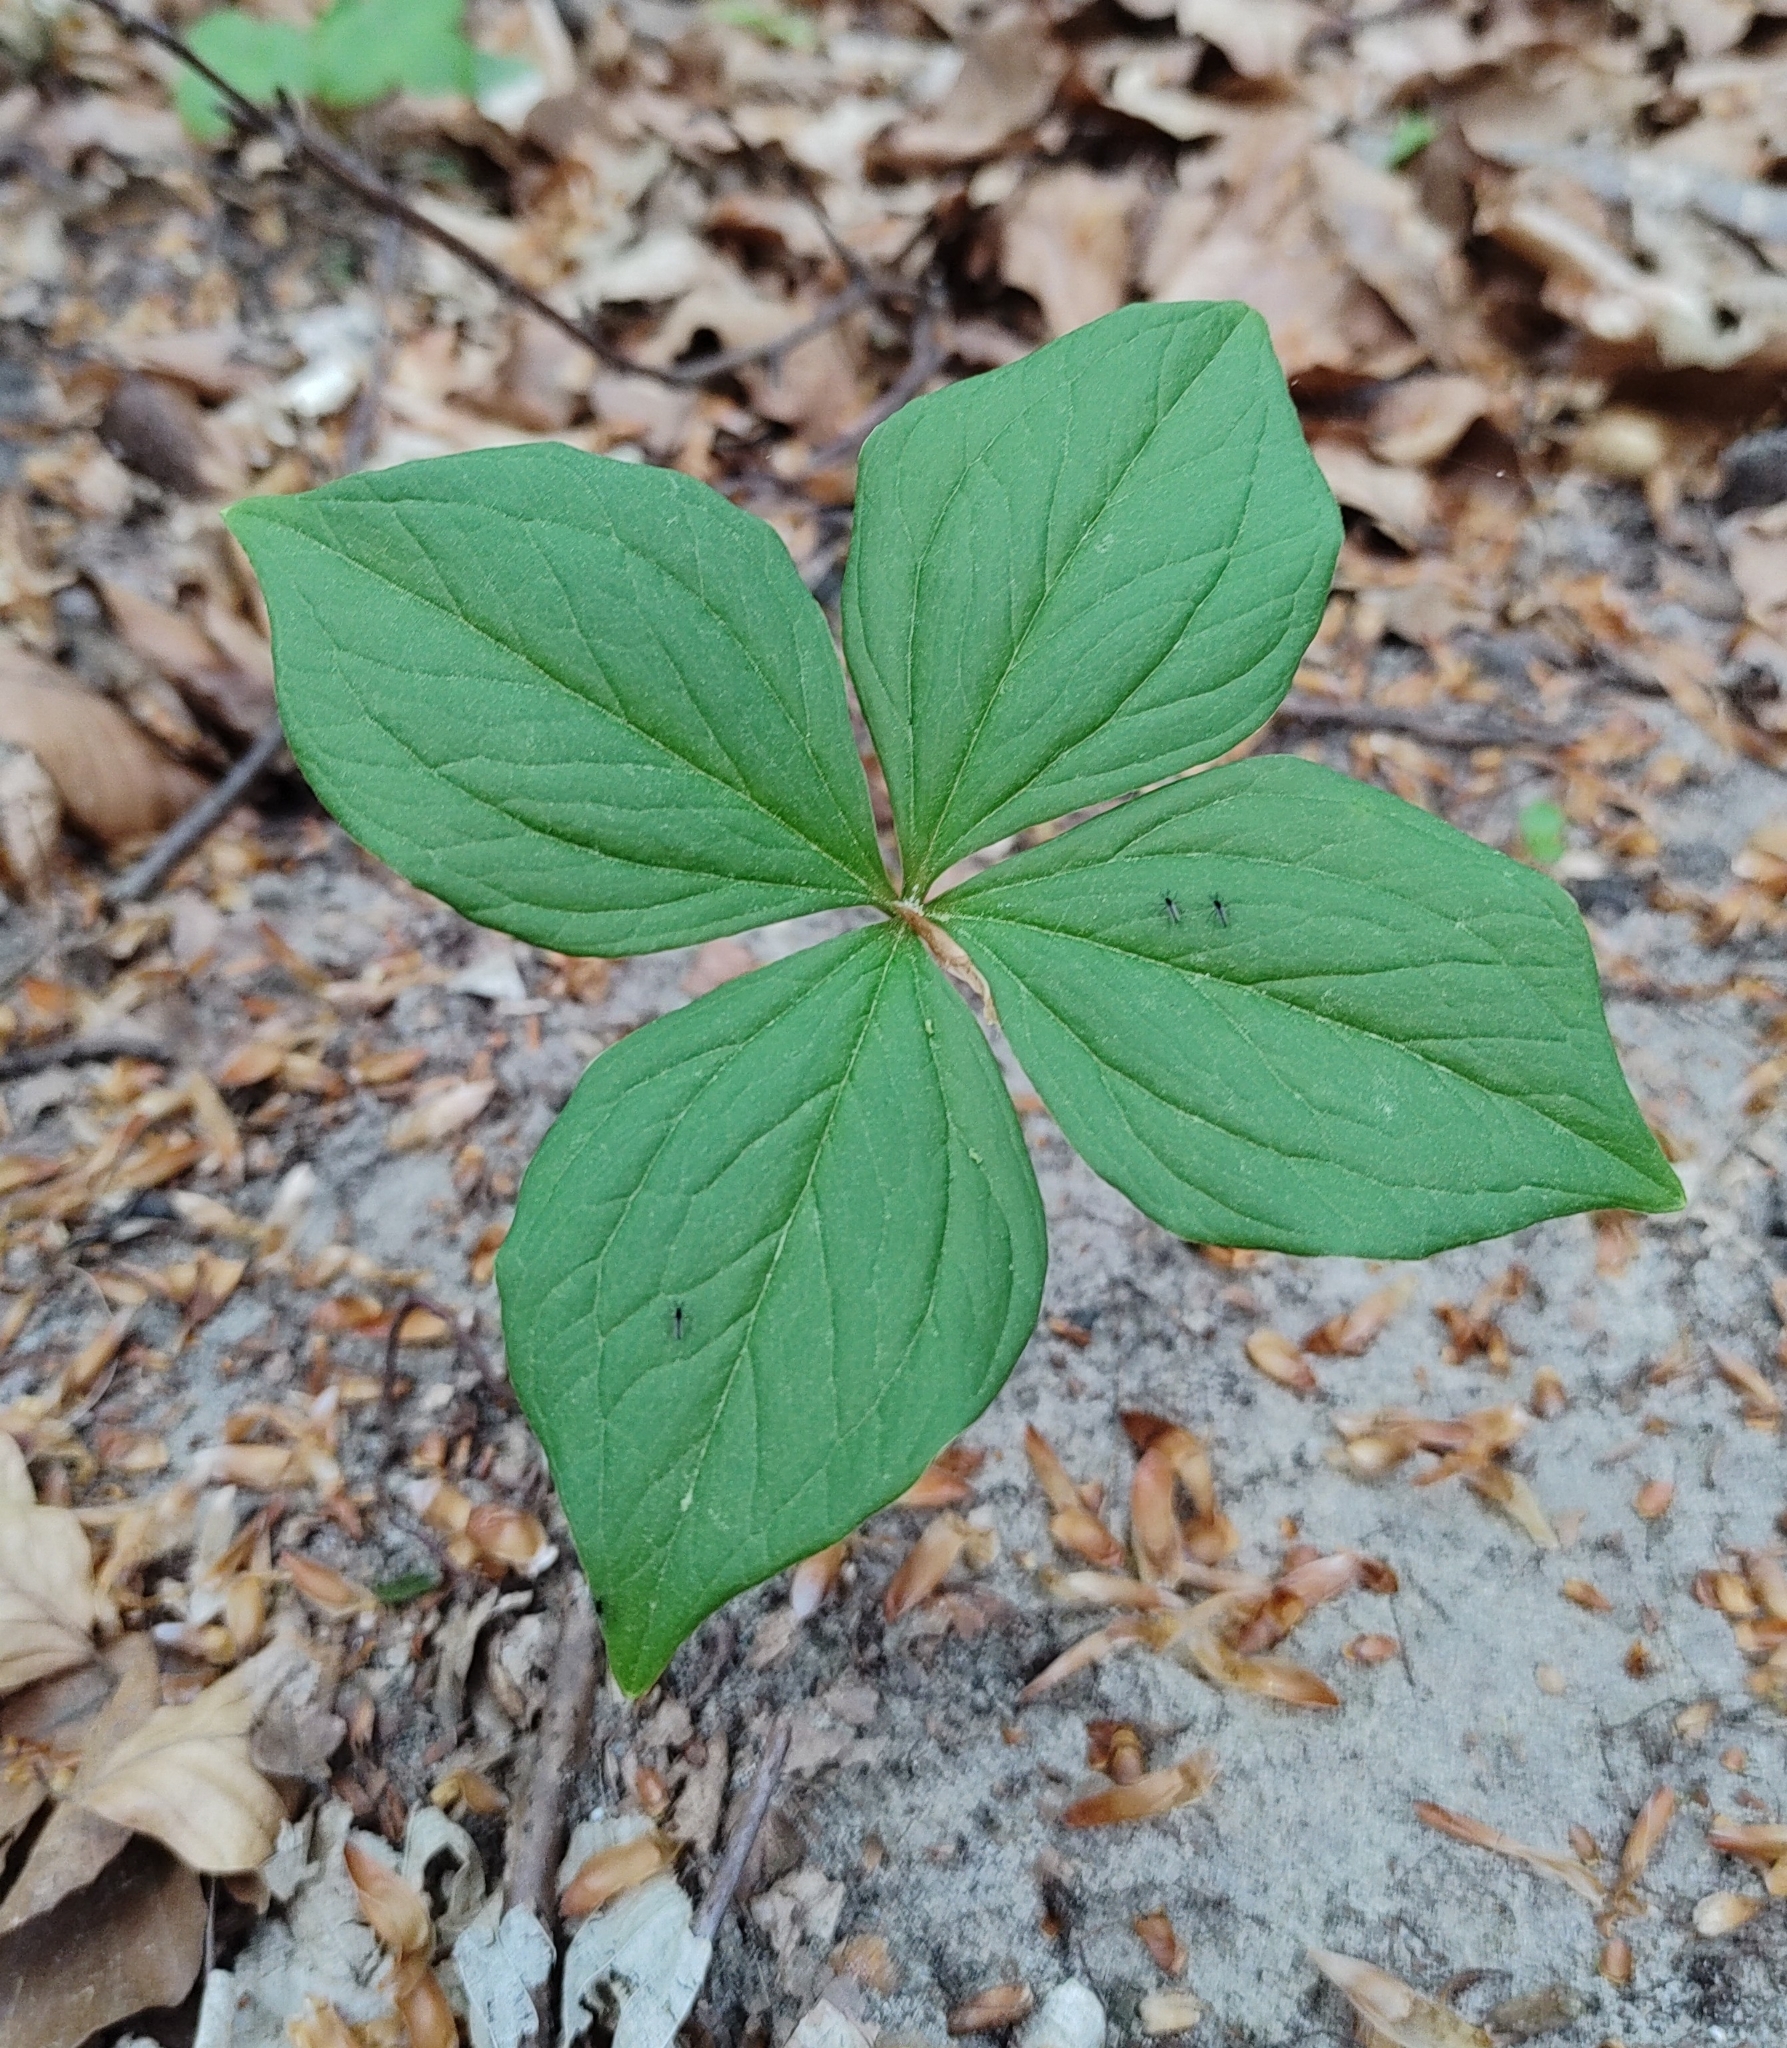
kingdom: Plantae
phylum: Tracheophyta
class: Liliopsida
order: Liliales
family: Melanthiaceae
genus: Paris
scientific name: Paris quadrifolia
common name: Herb-paris
